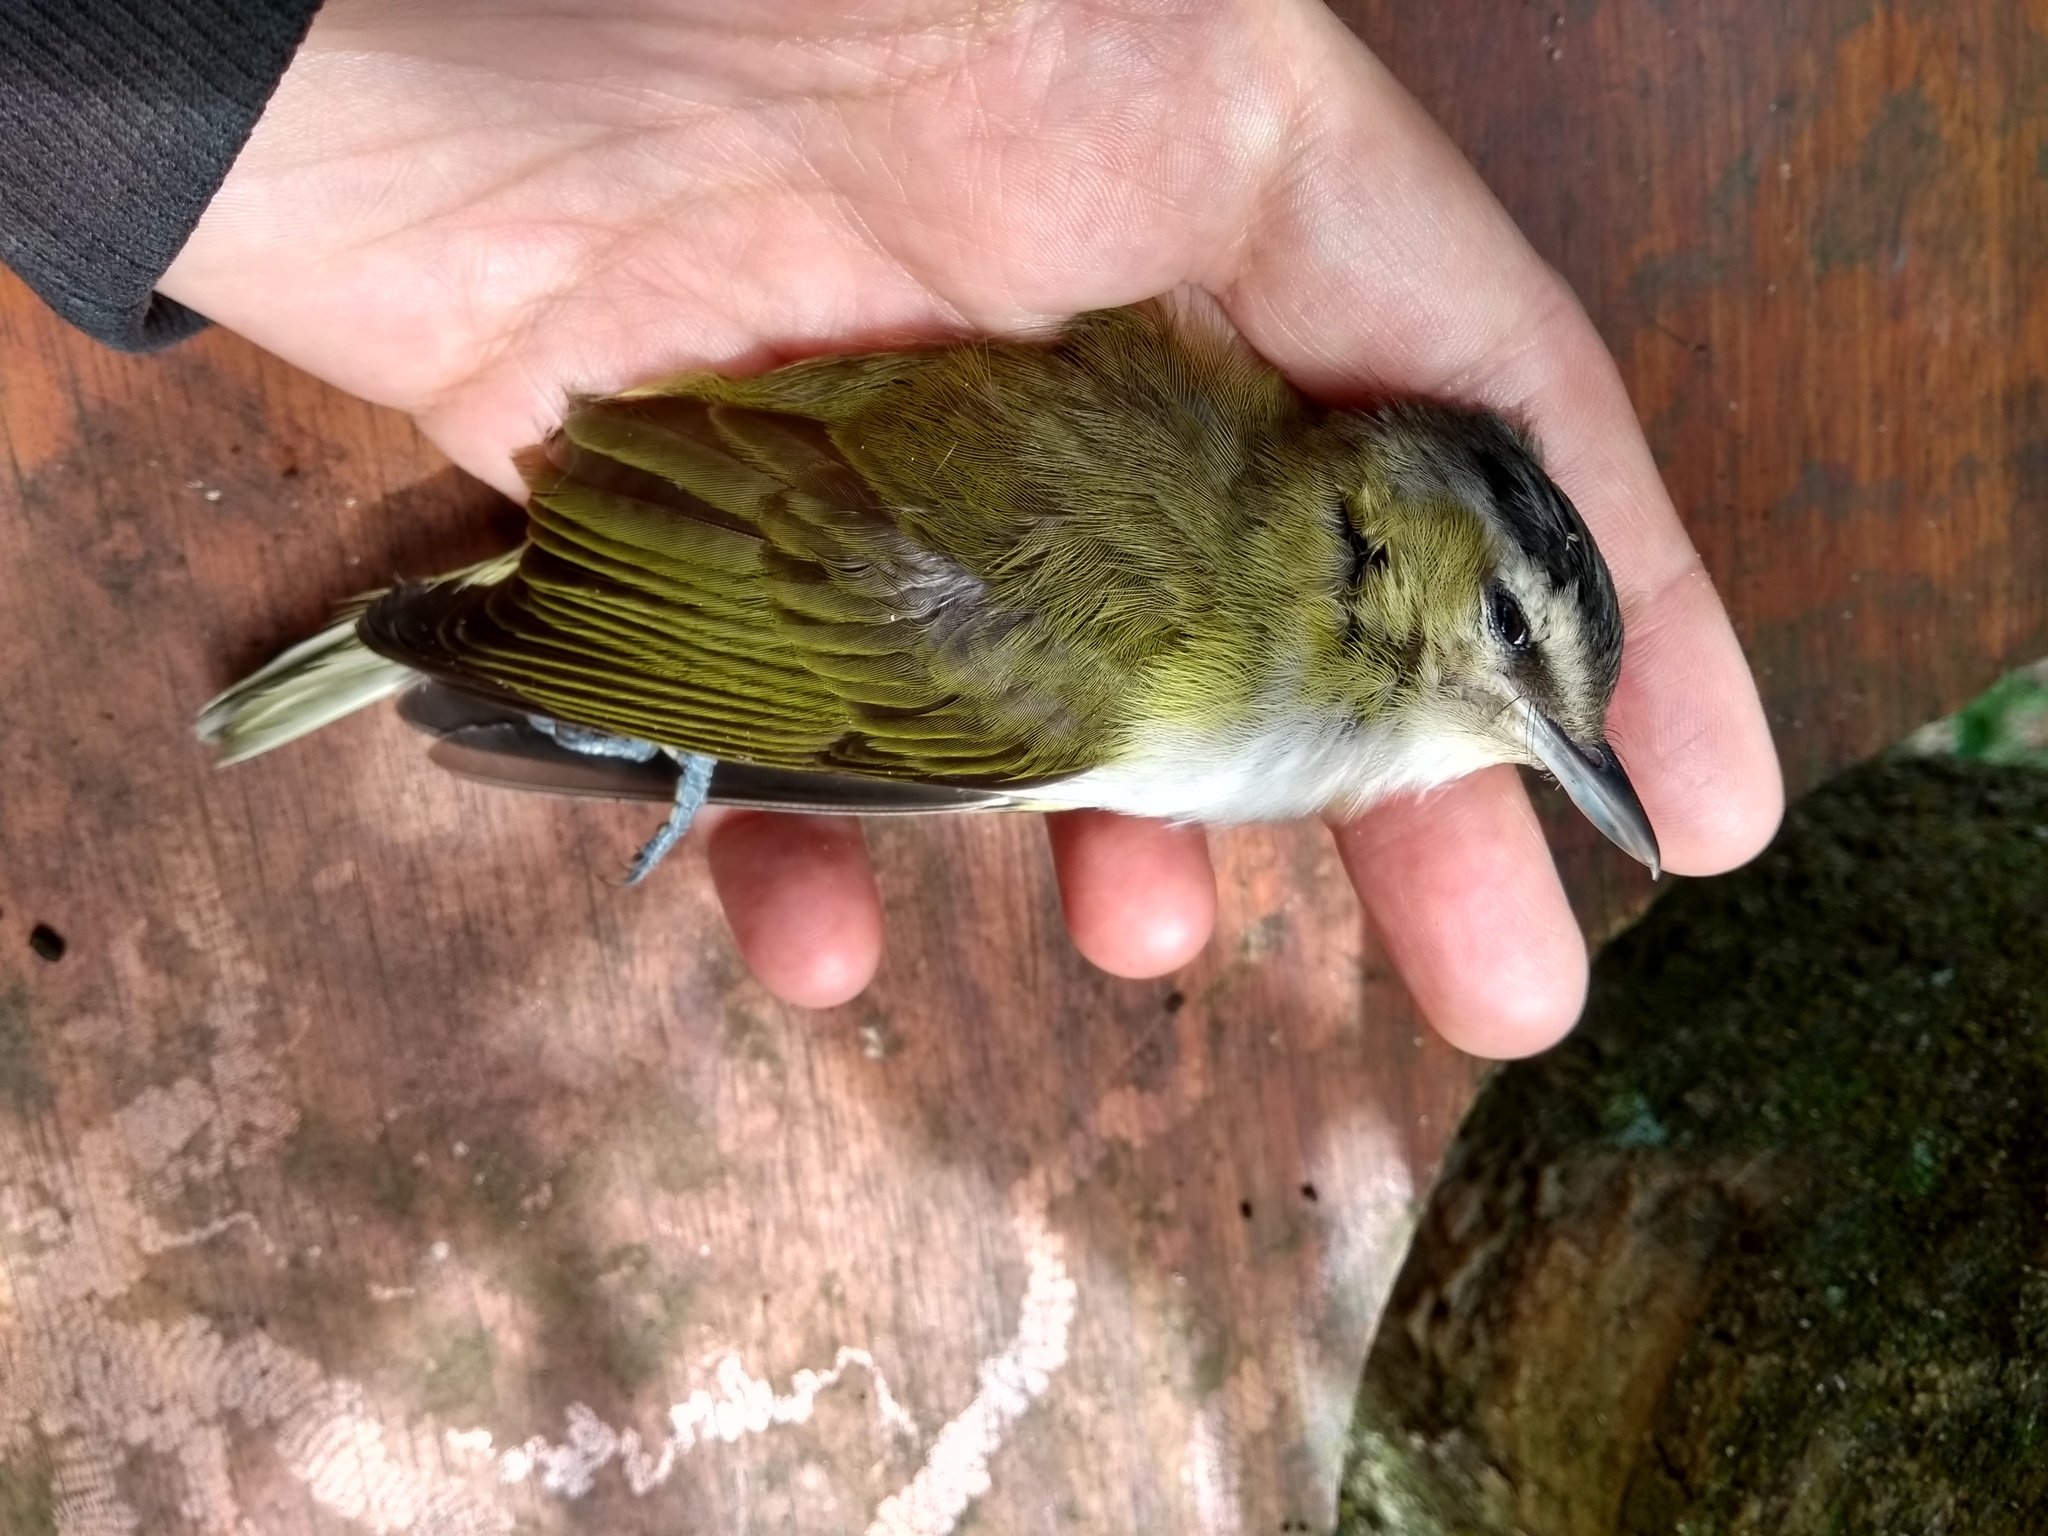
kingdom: Animalia
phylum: Chordata
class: Aves
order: Passeriformes
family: Vireonidae
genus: Vireo
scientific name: Vireo olivaceus
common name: Red-eyed vireo
